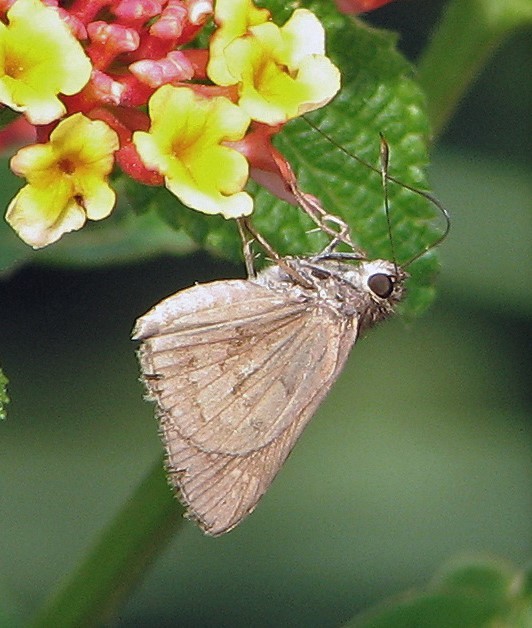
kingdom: Animalia
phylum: Arthropoda
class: Insecta
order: Lepidoptera
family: Hesperiidae
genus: Cymaenes
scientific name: Cymaenes gisca
